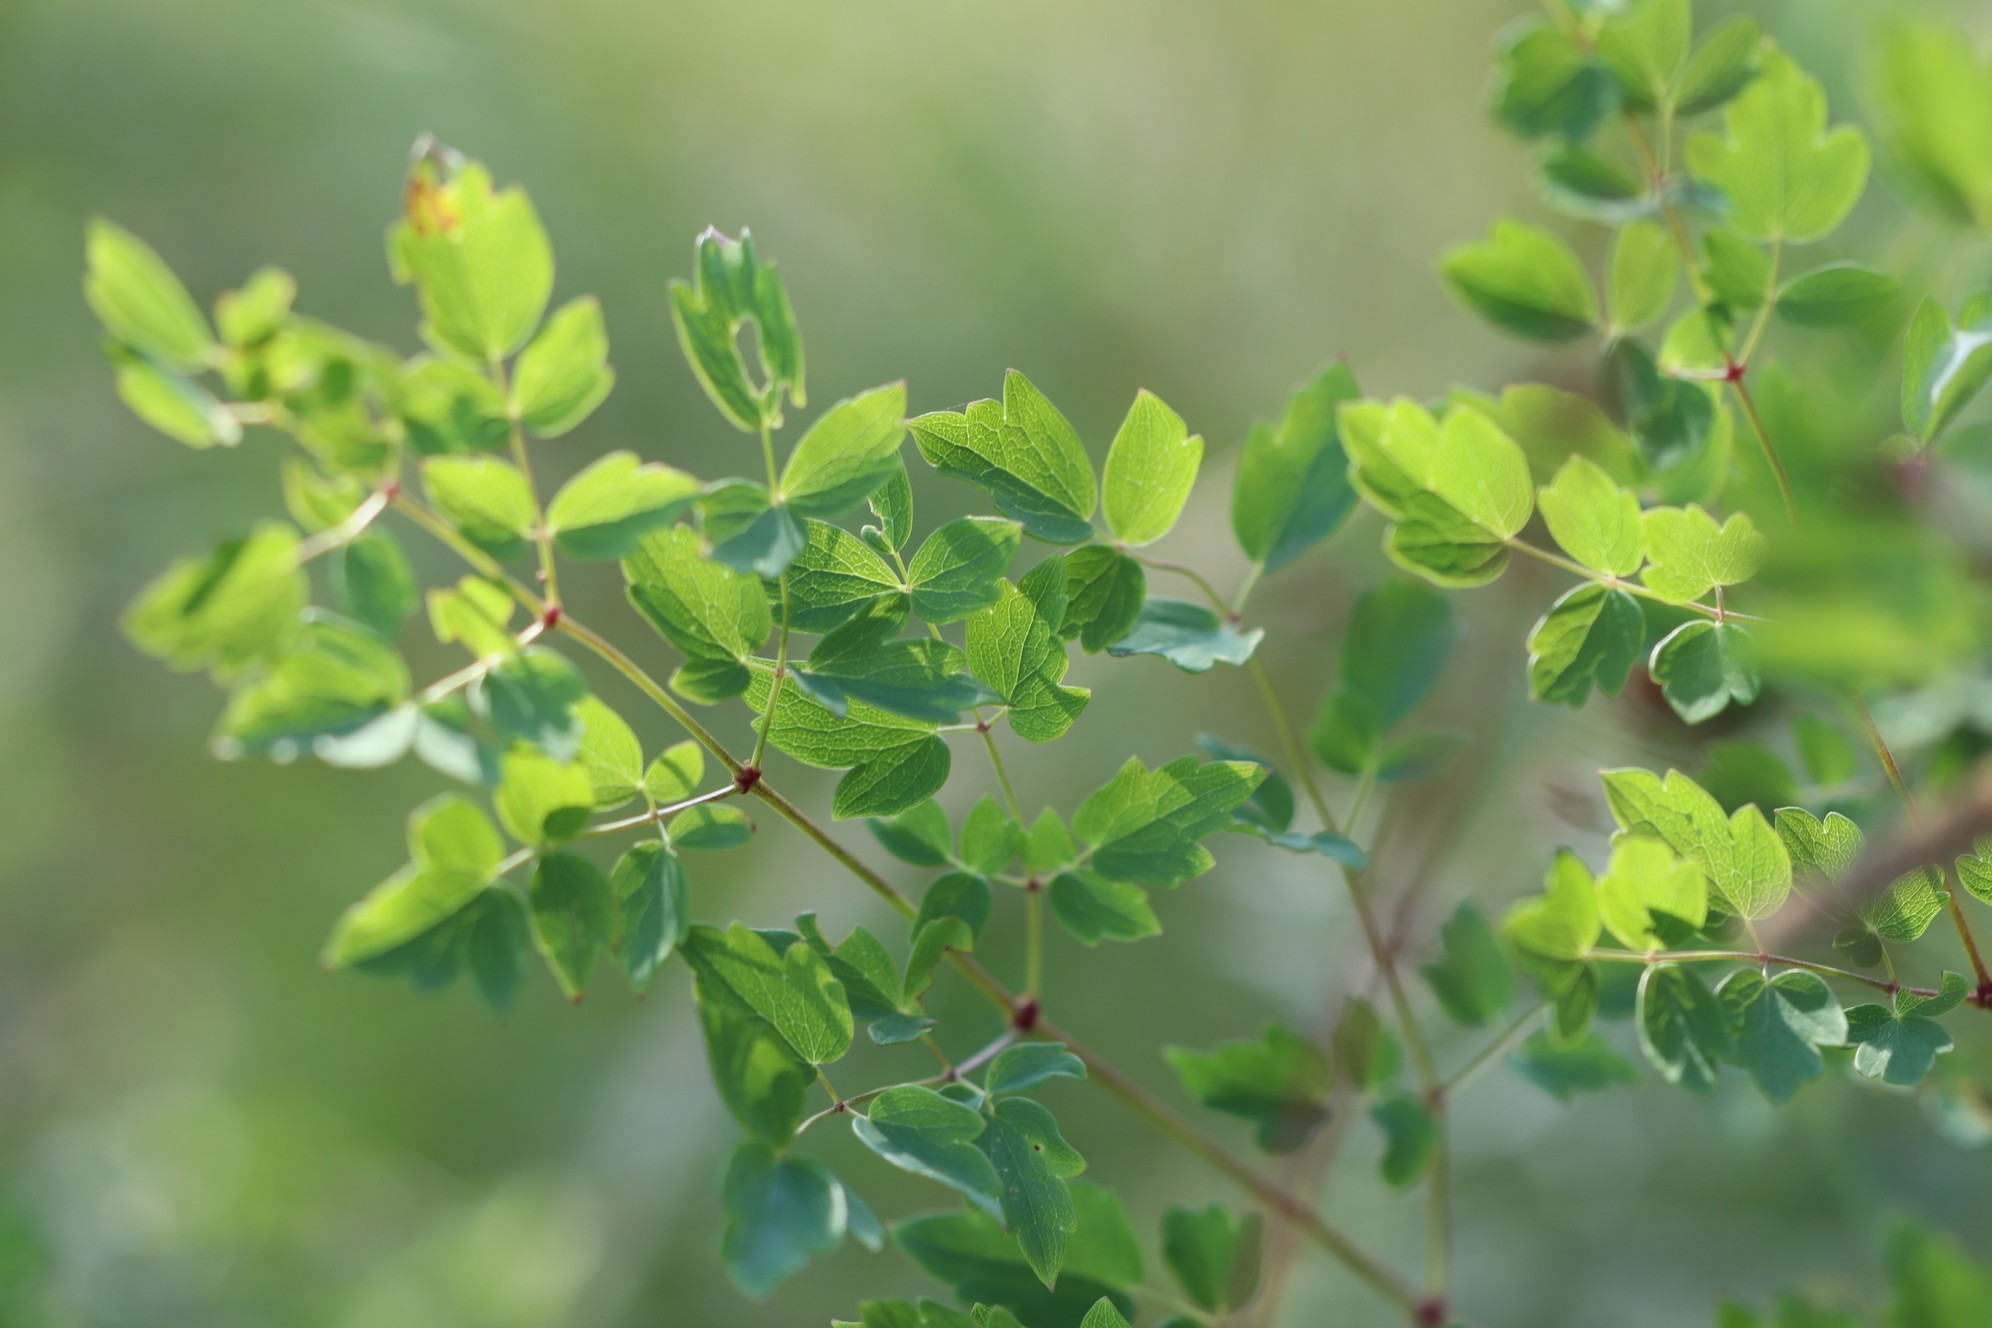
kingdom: Plantae
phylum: Tracheophyta
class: Magnoliopsida
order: Ranunculales
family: Ranunculaceae
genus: Thalictrum
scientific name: Thalictrum minus
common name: Lesser meadow-rue
